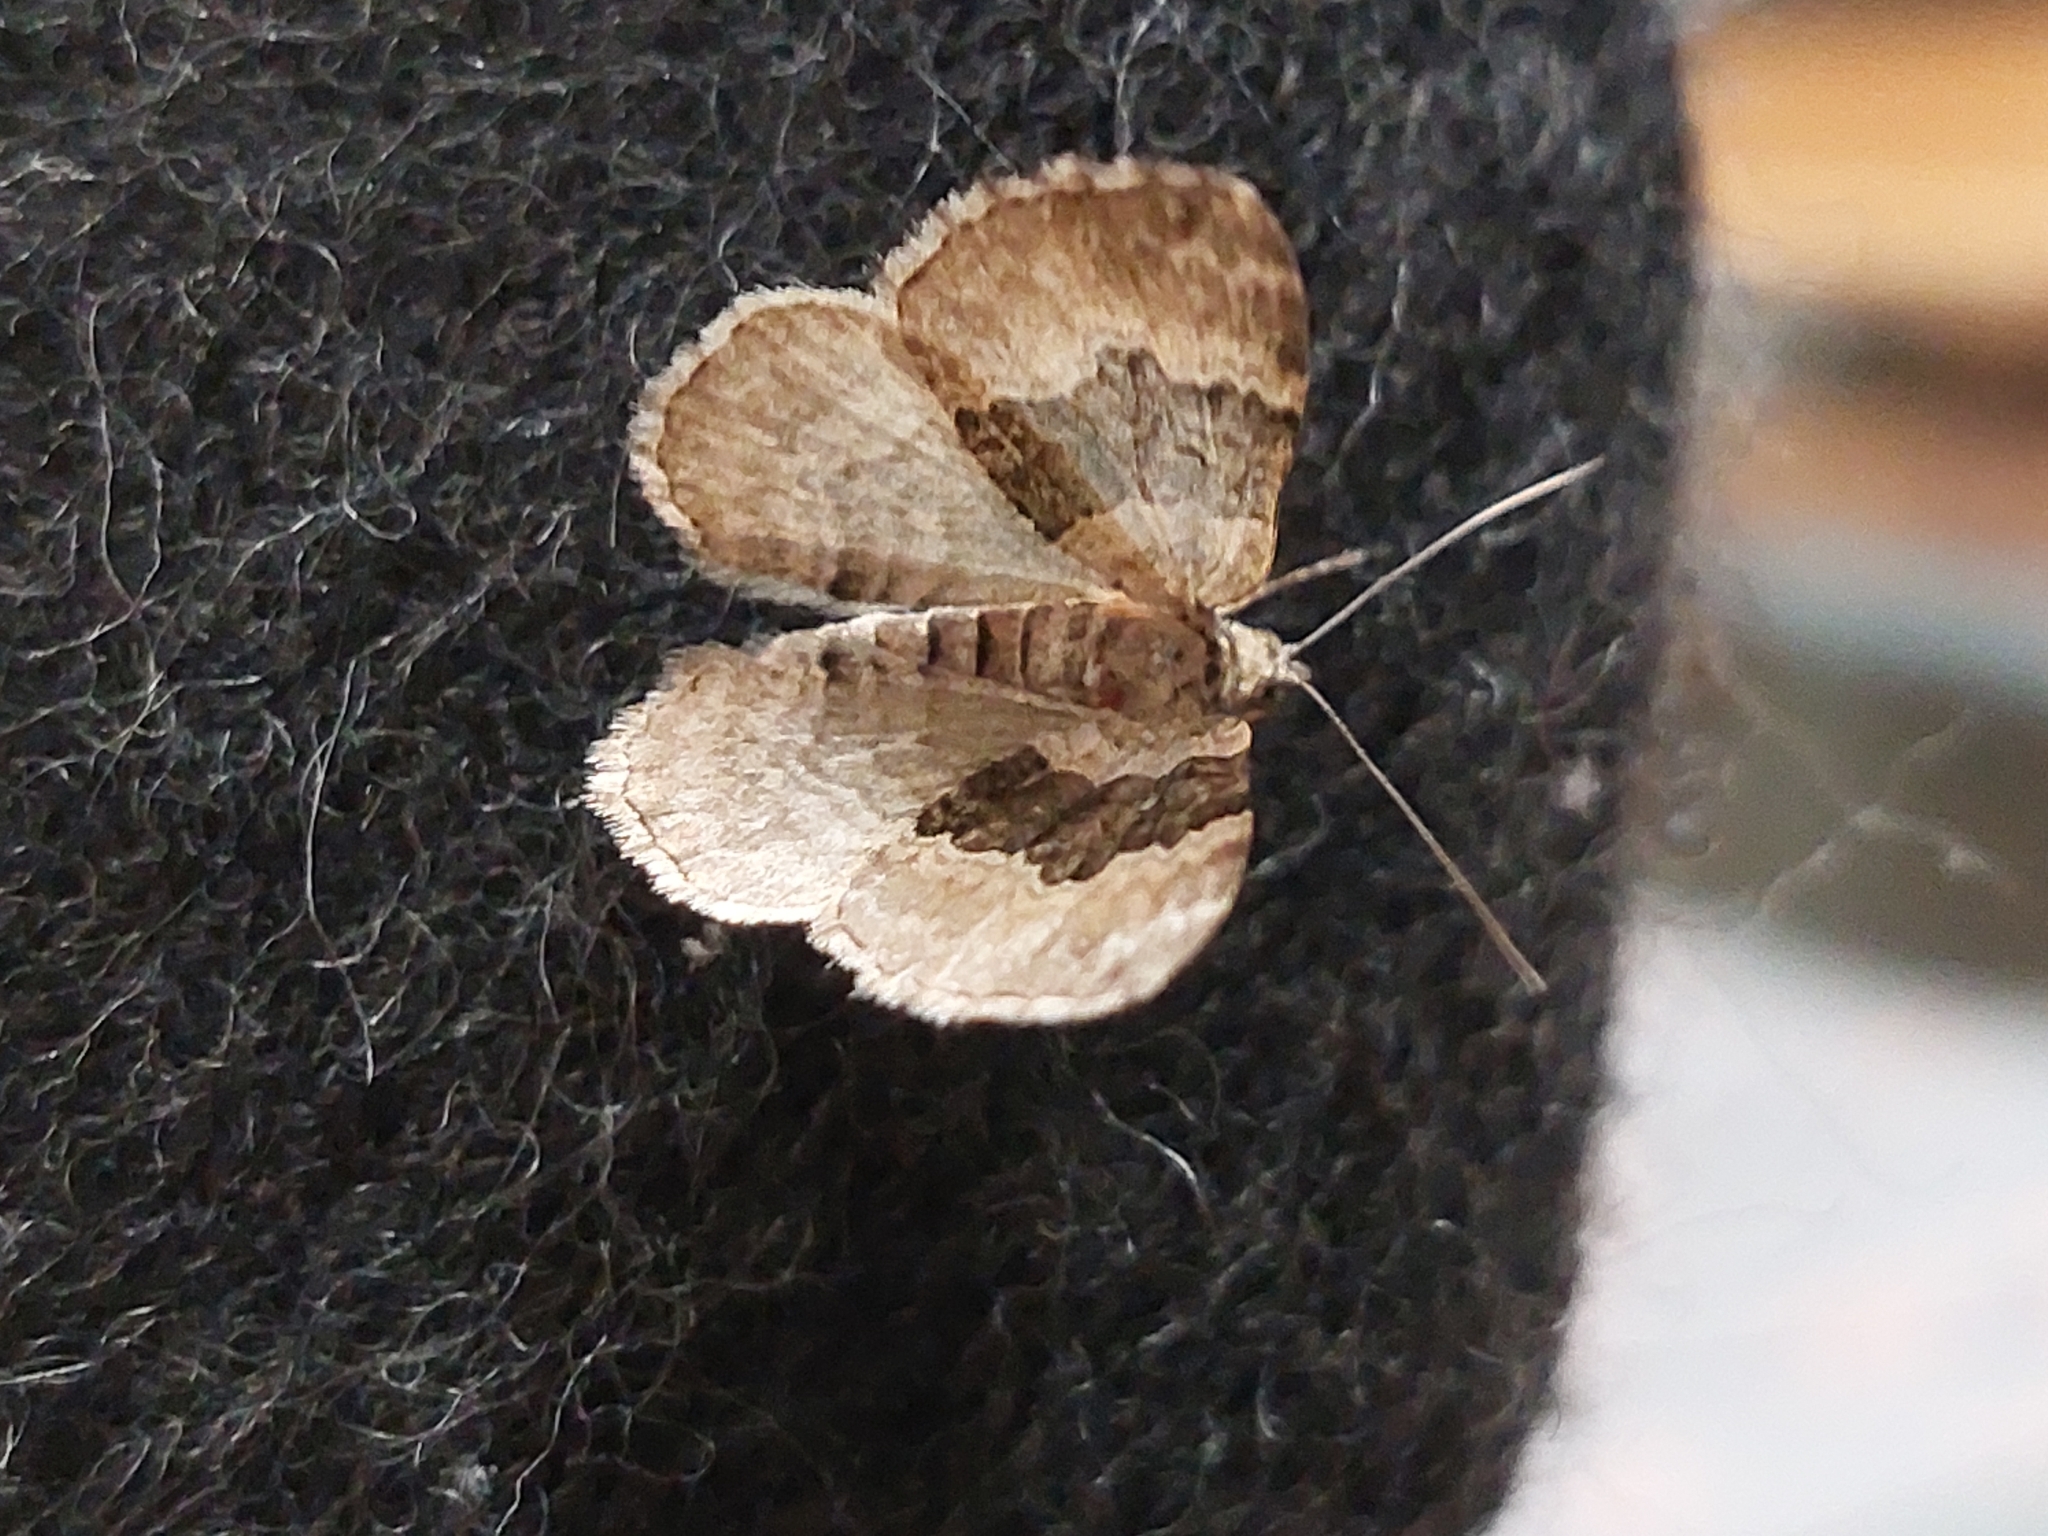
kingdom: Animalia
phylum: Arthropoda
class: Insecta
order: Lepidoptera
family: Geometridae
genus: Xanthorhoe
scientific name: Xanthorhoe quadrifasiata
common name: Large twin-spot carpet
